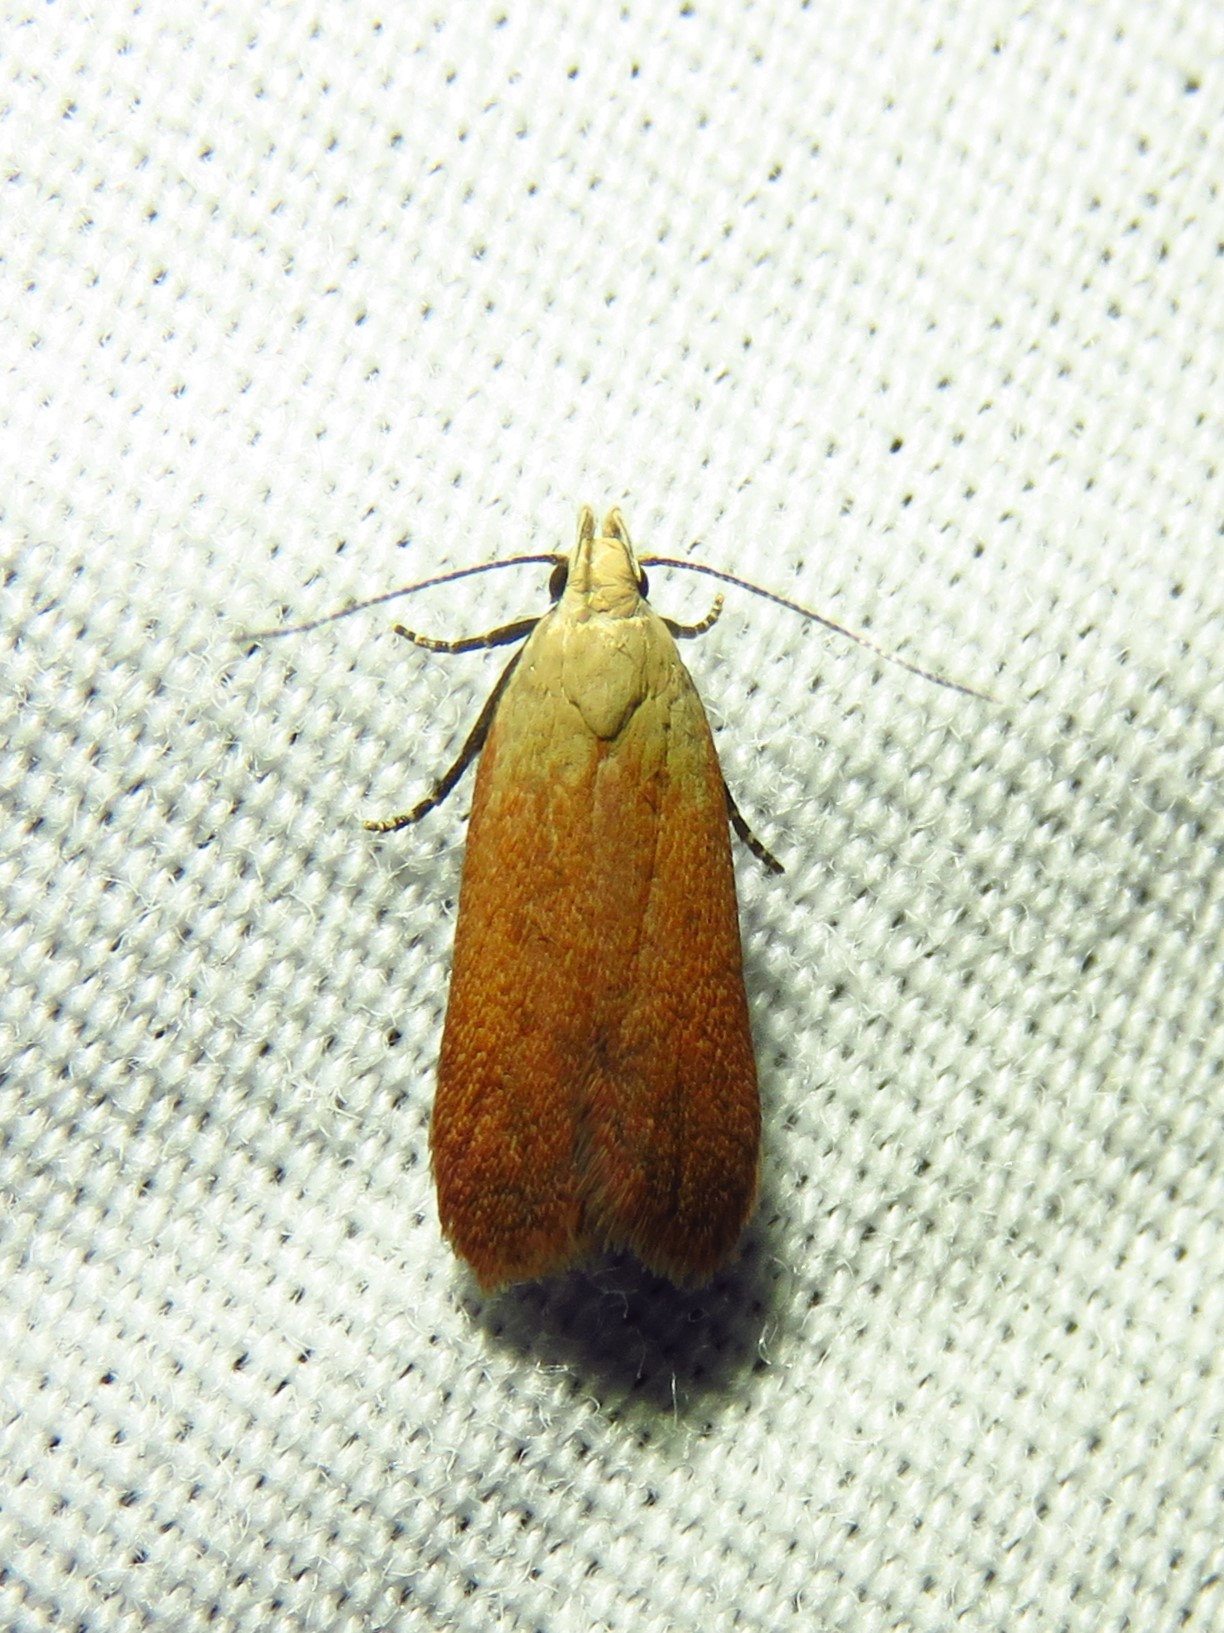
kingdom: Animalia
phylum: Arthropoda
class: Insecta
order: Lepidoptera
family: Gelechiidae
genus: Anacampsis
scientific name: Anacampsis fullonella
